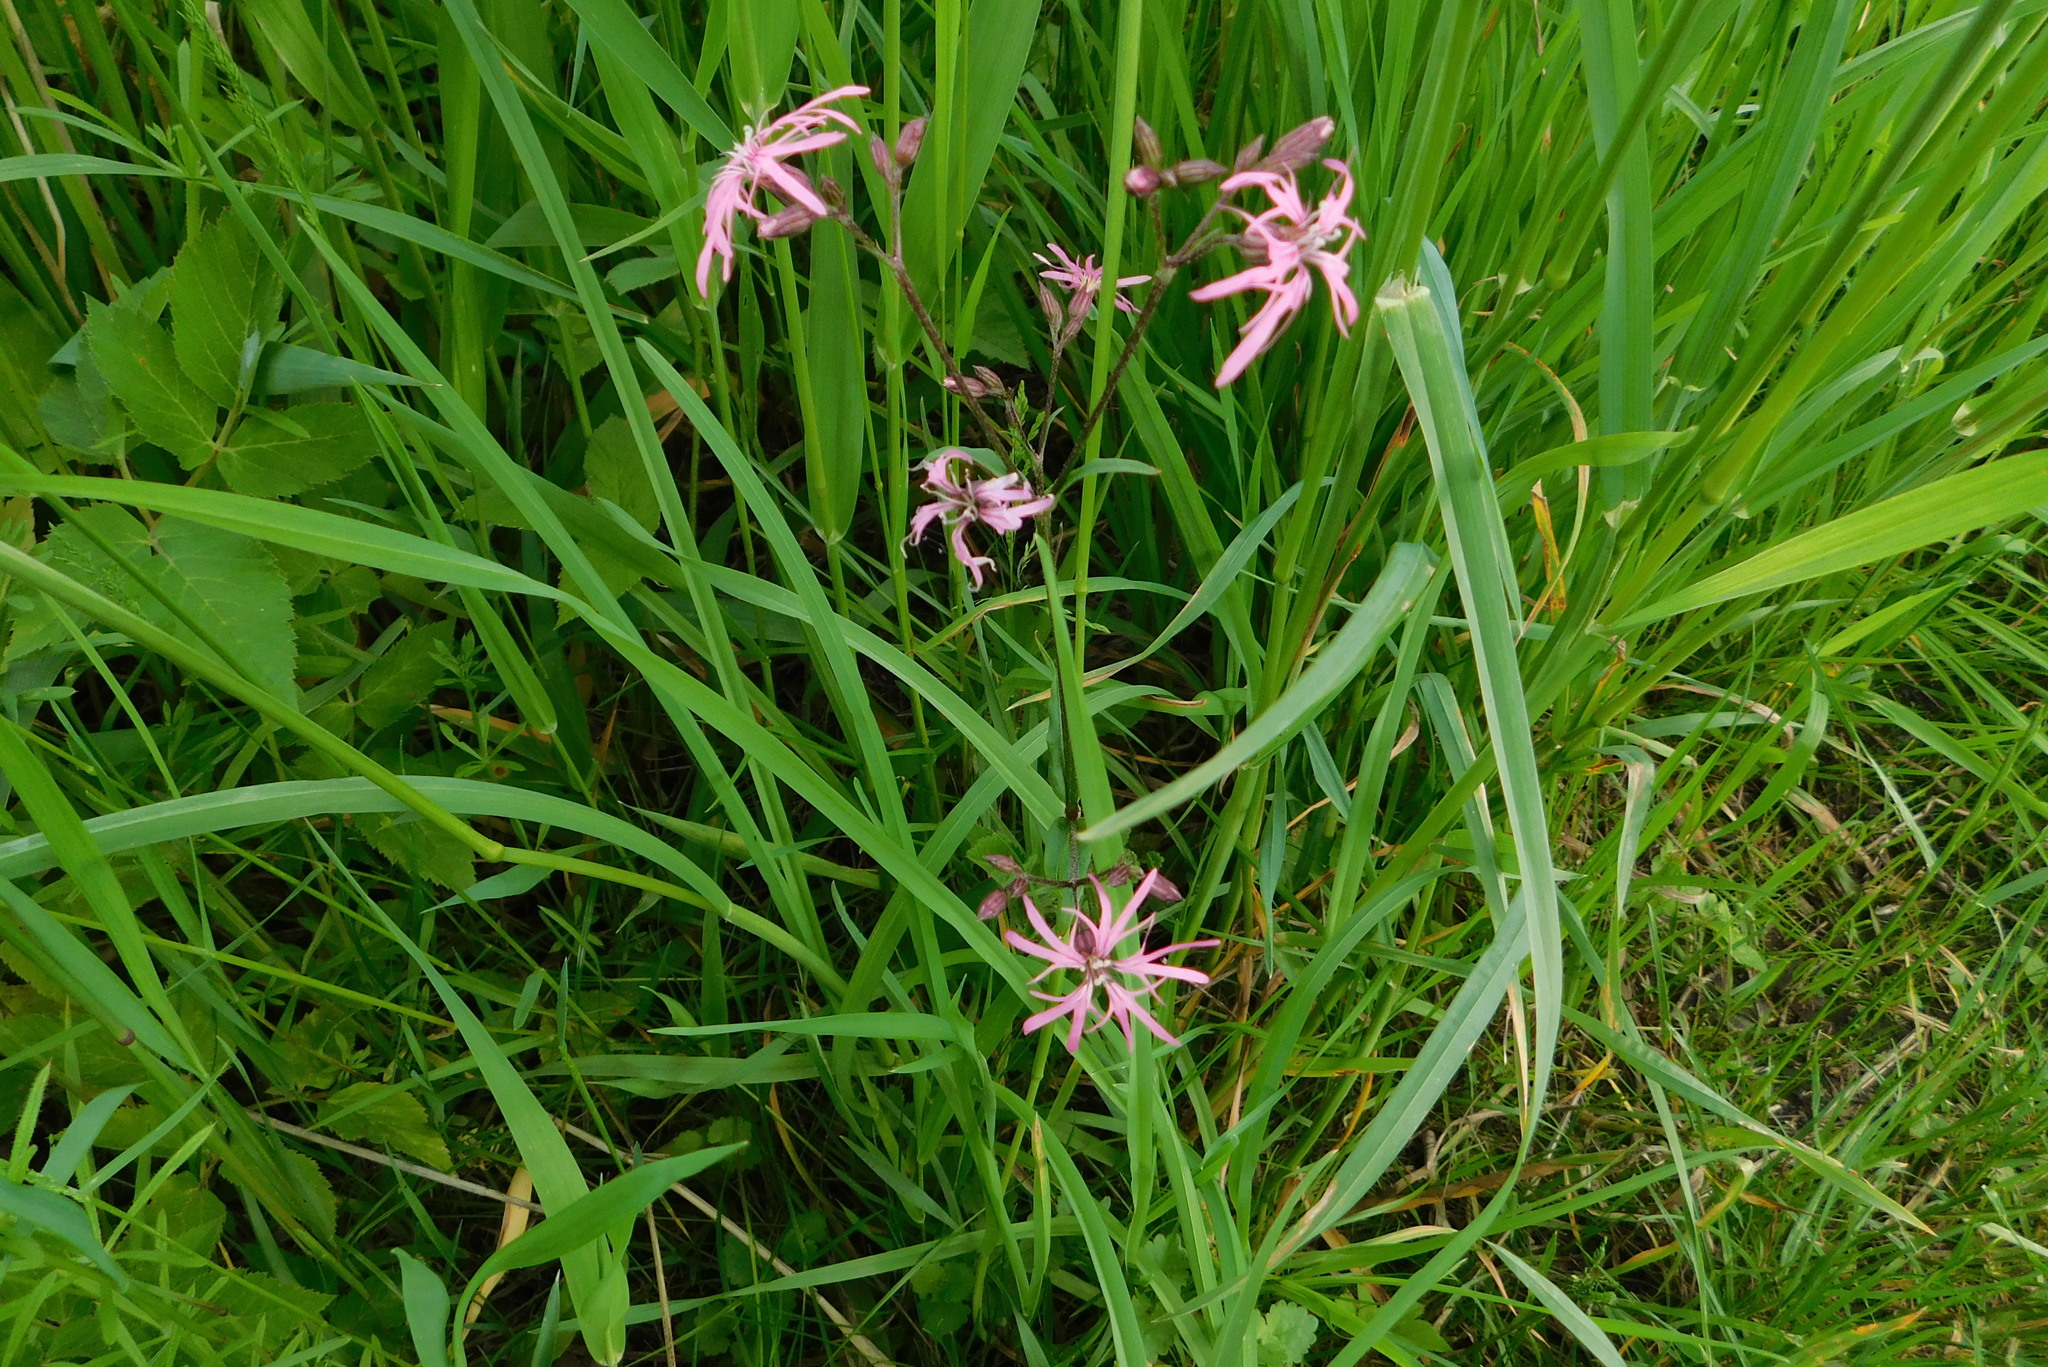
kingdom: Plantae
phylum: Tracheophyta
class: Magnoliopsida
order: Caryophyllales
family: Caryophyllaceae
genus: Silene
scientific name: Silene flos-cuculi
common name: Ragged-robin
